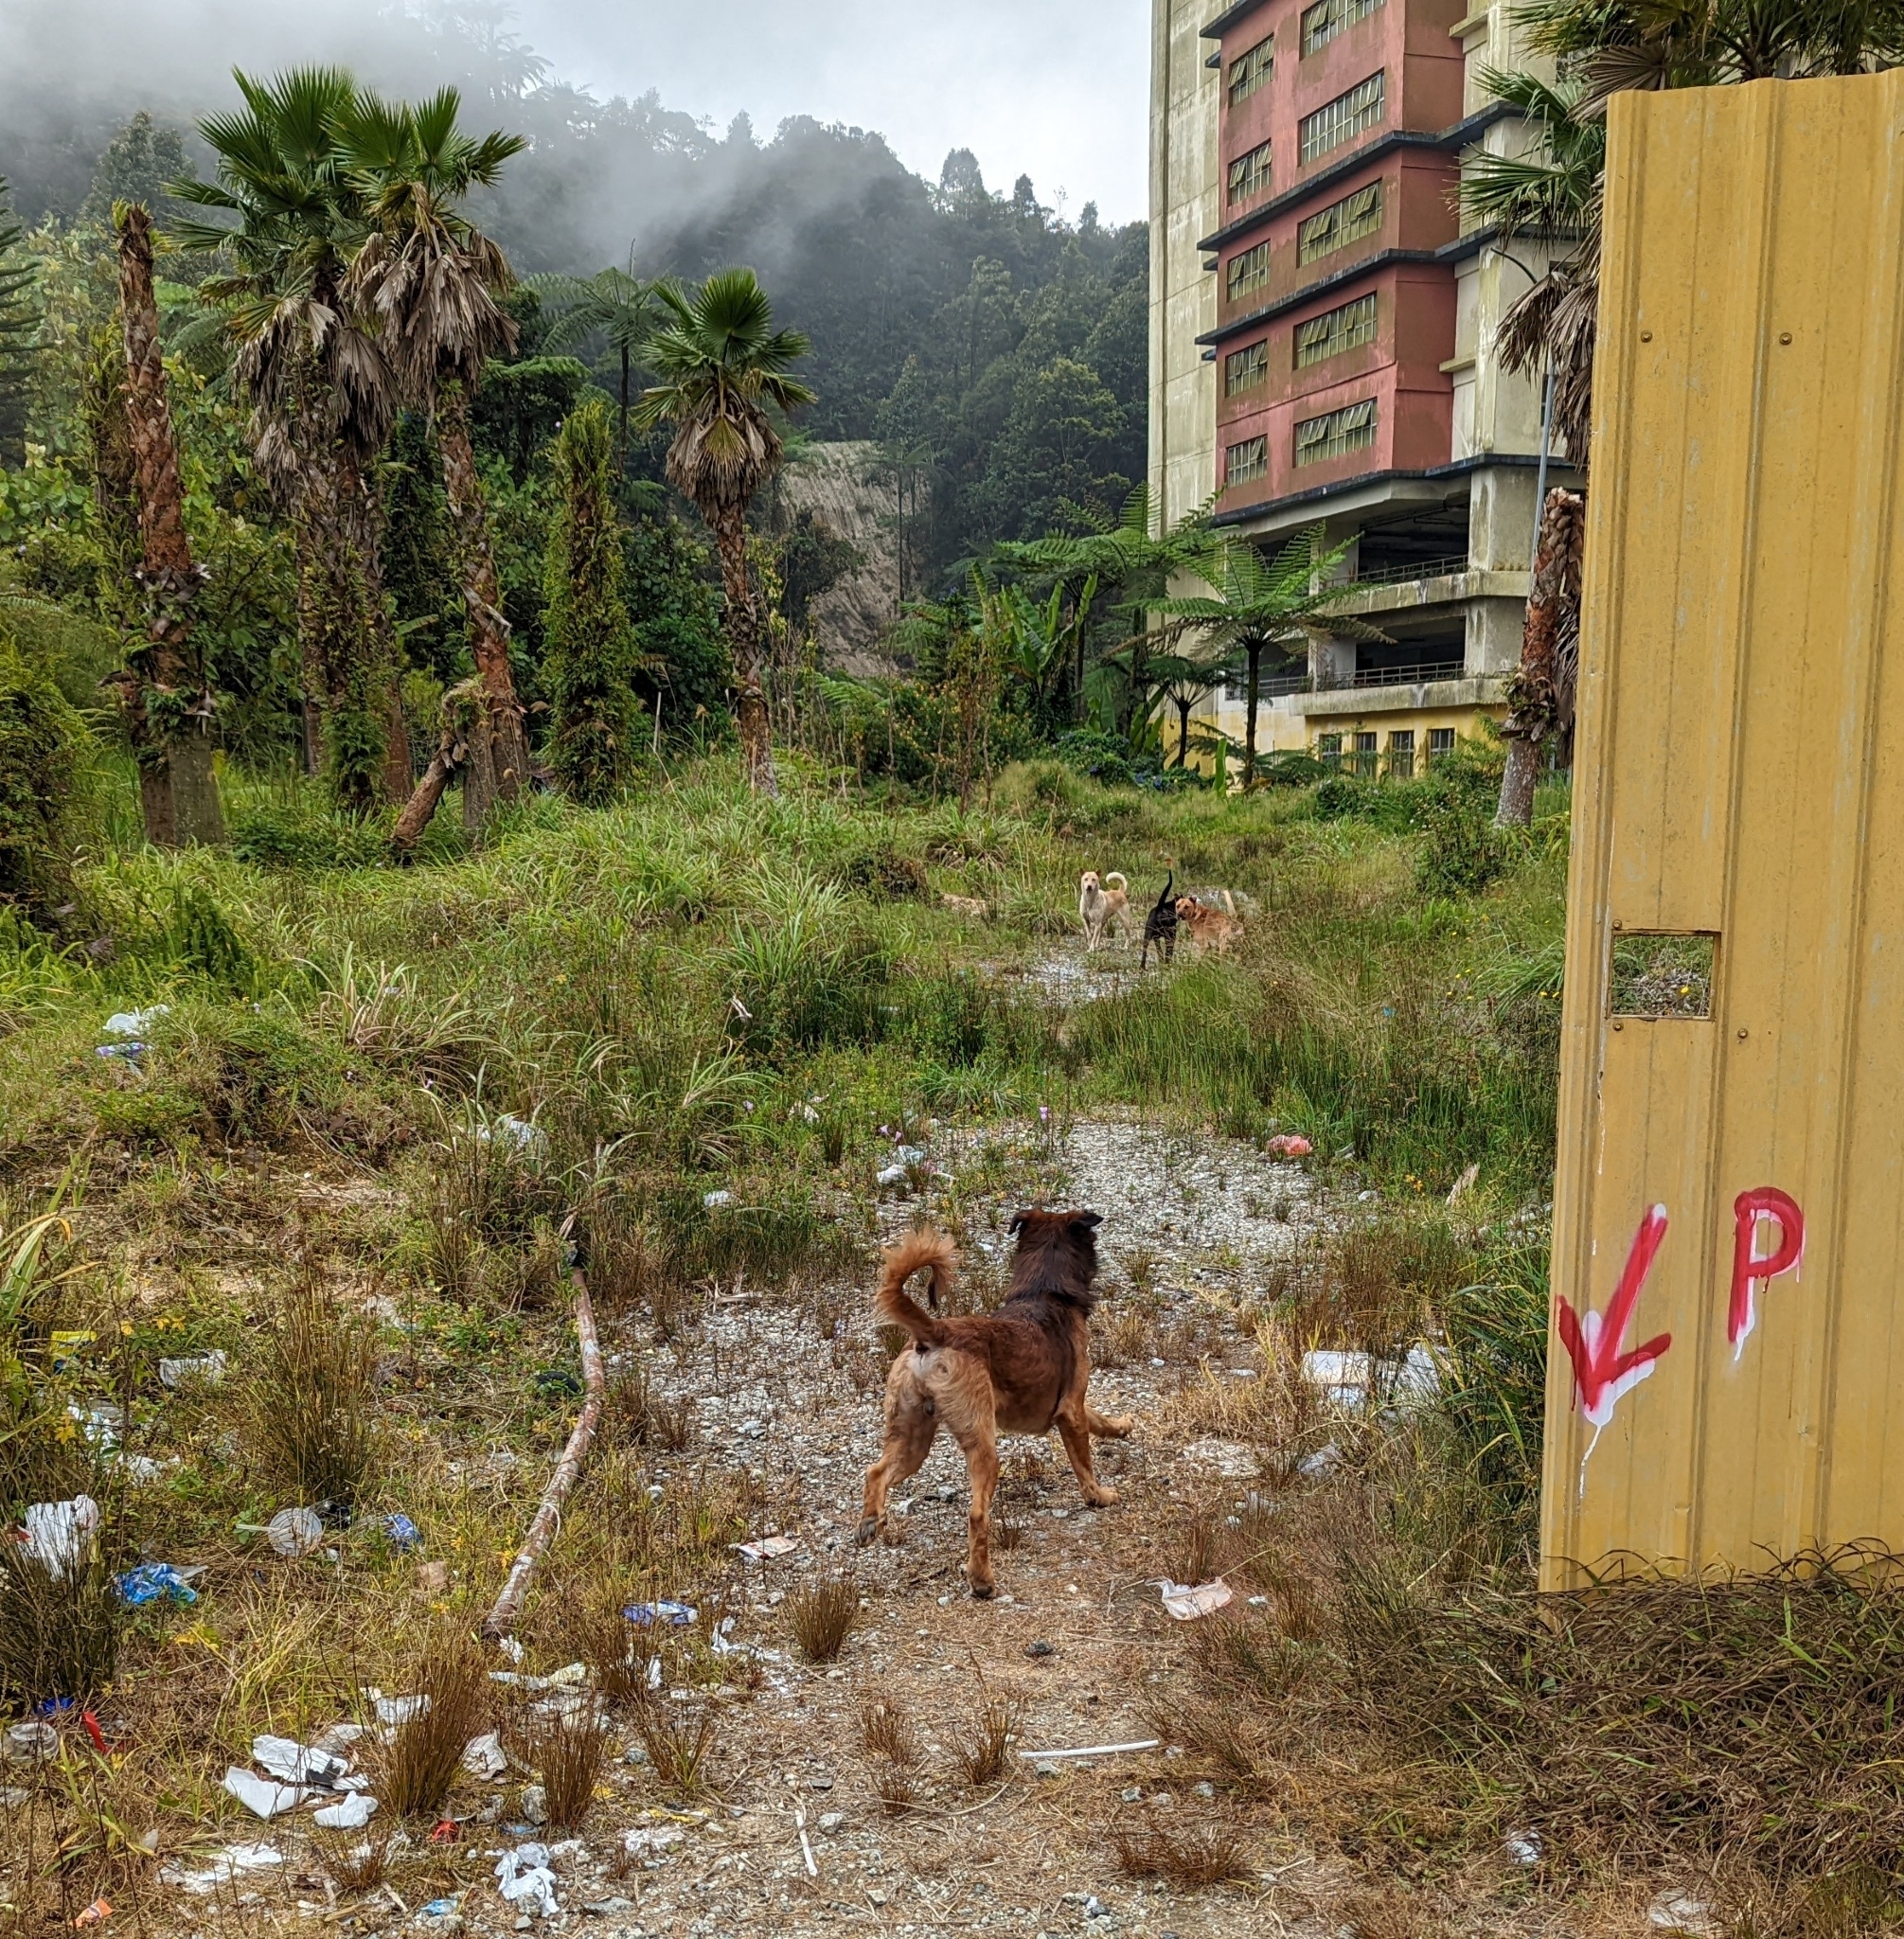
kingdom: Animalia
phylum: Chordata
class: Mammalia
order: Carnivora
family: Canidae
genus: Canis
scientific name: Canis lupus
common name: Gray wolf
